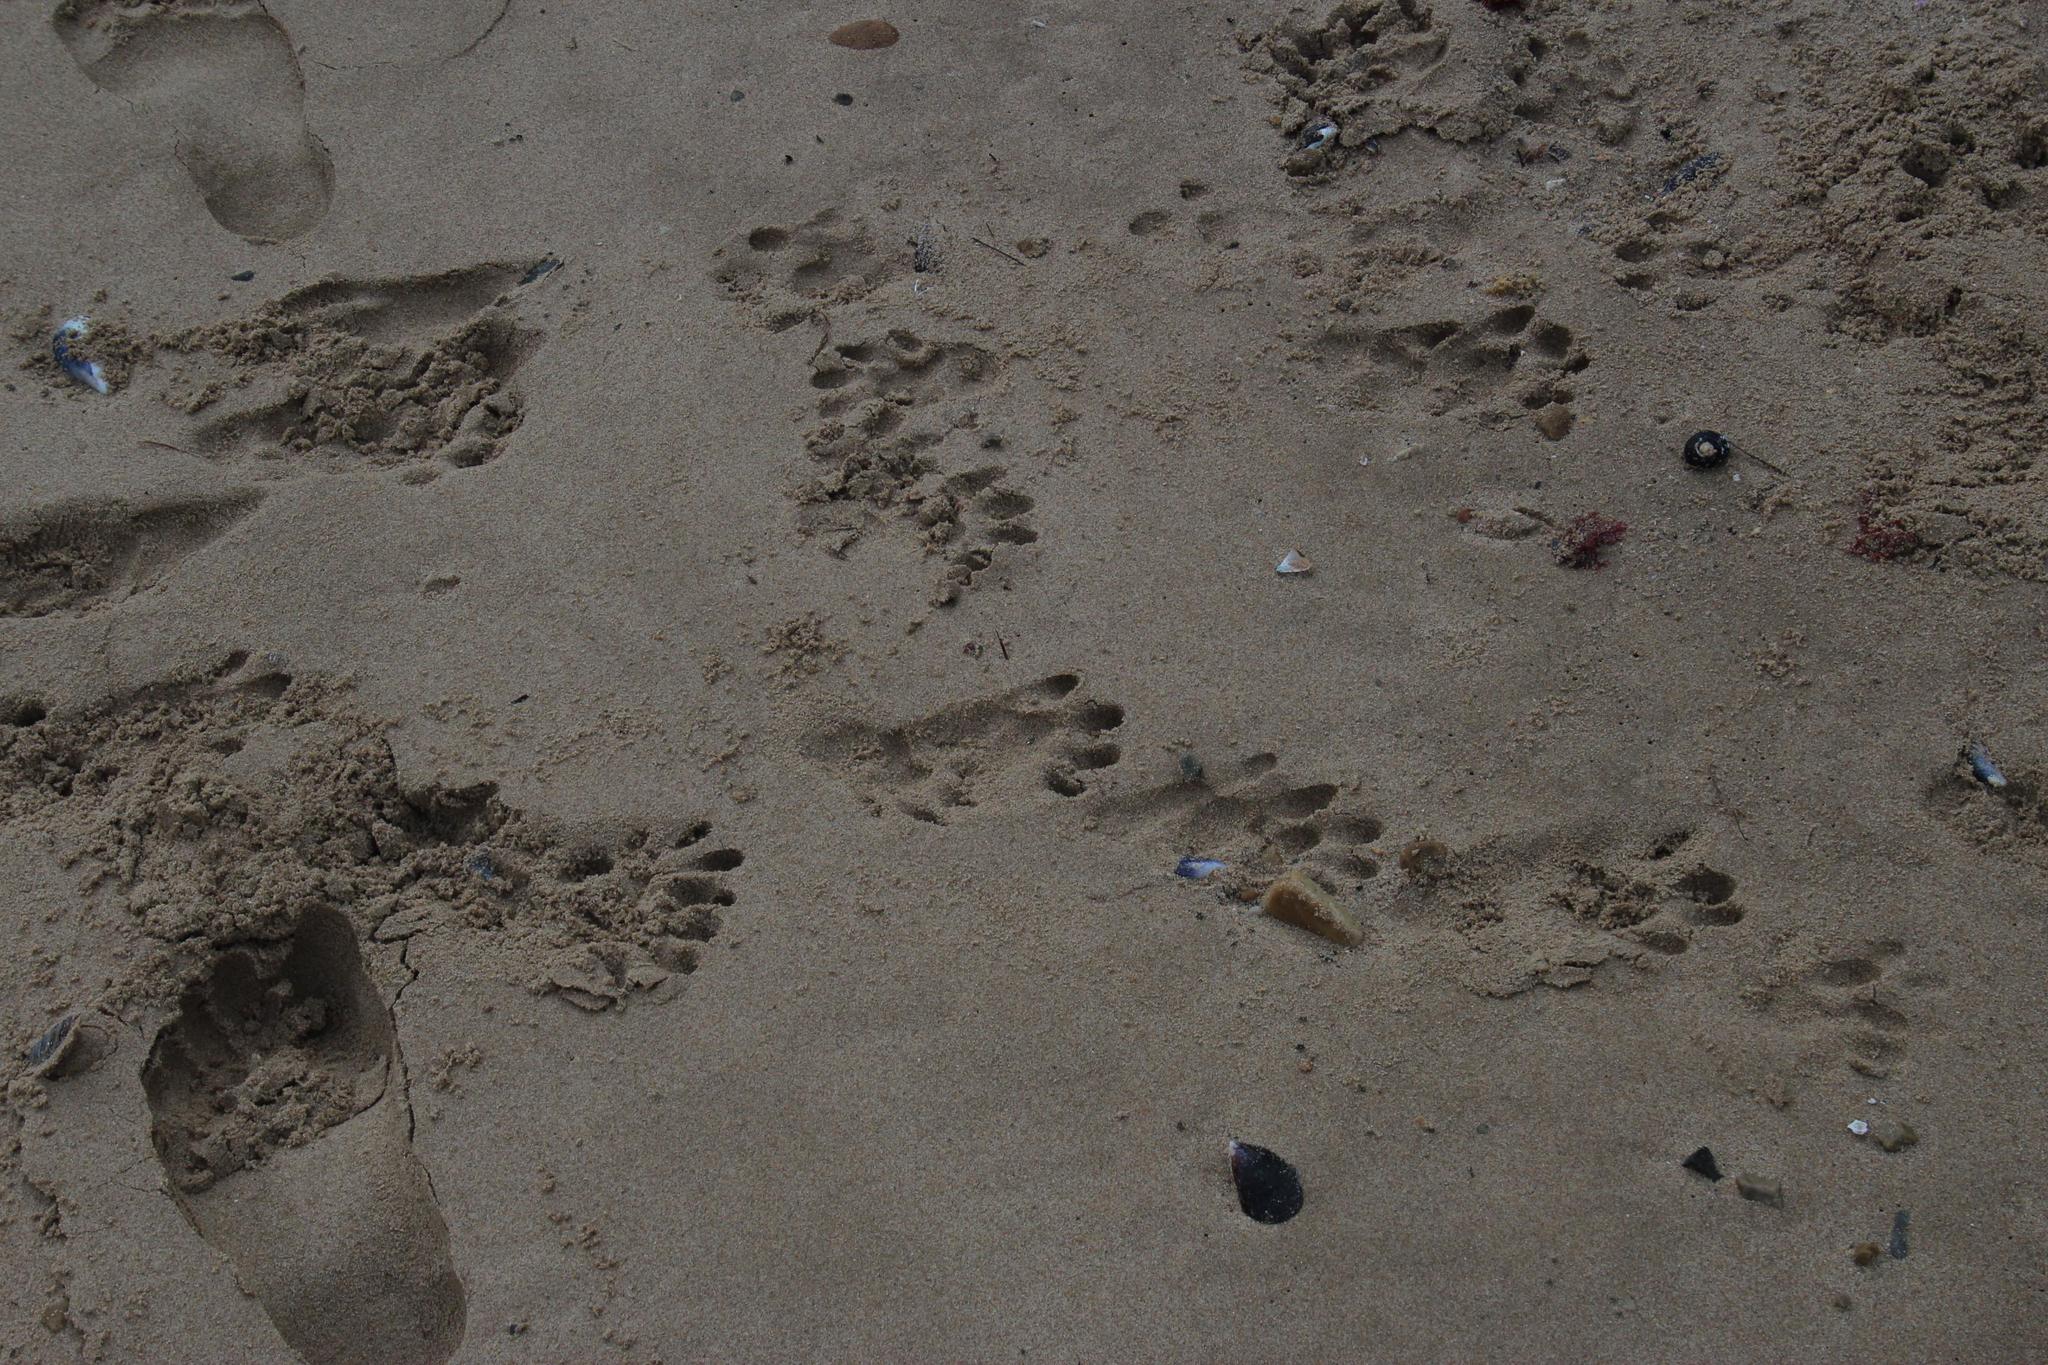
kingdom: Animalia
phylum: Chordata
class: Mammalia
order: Carnivora
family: Mustelidae
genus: Aonyx
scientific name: Aonyx capensis
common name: African clawless otter
